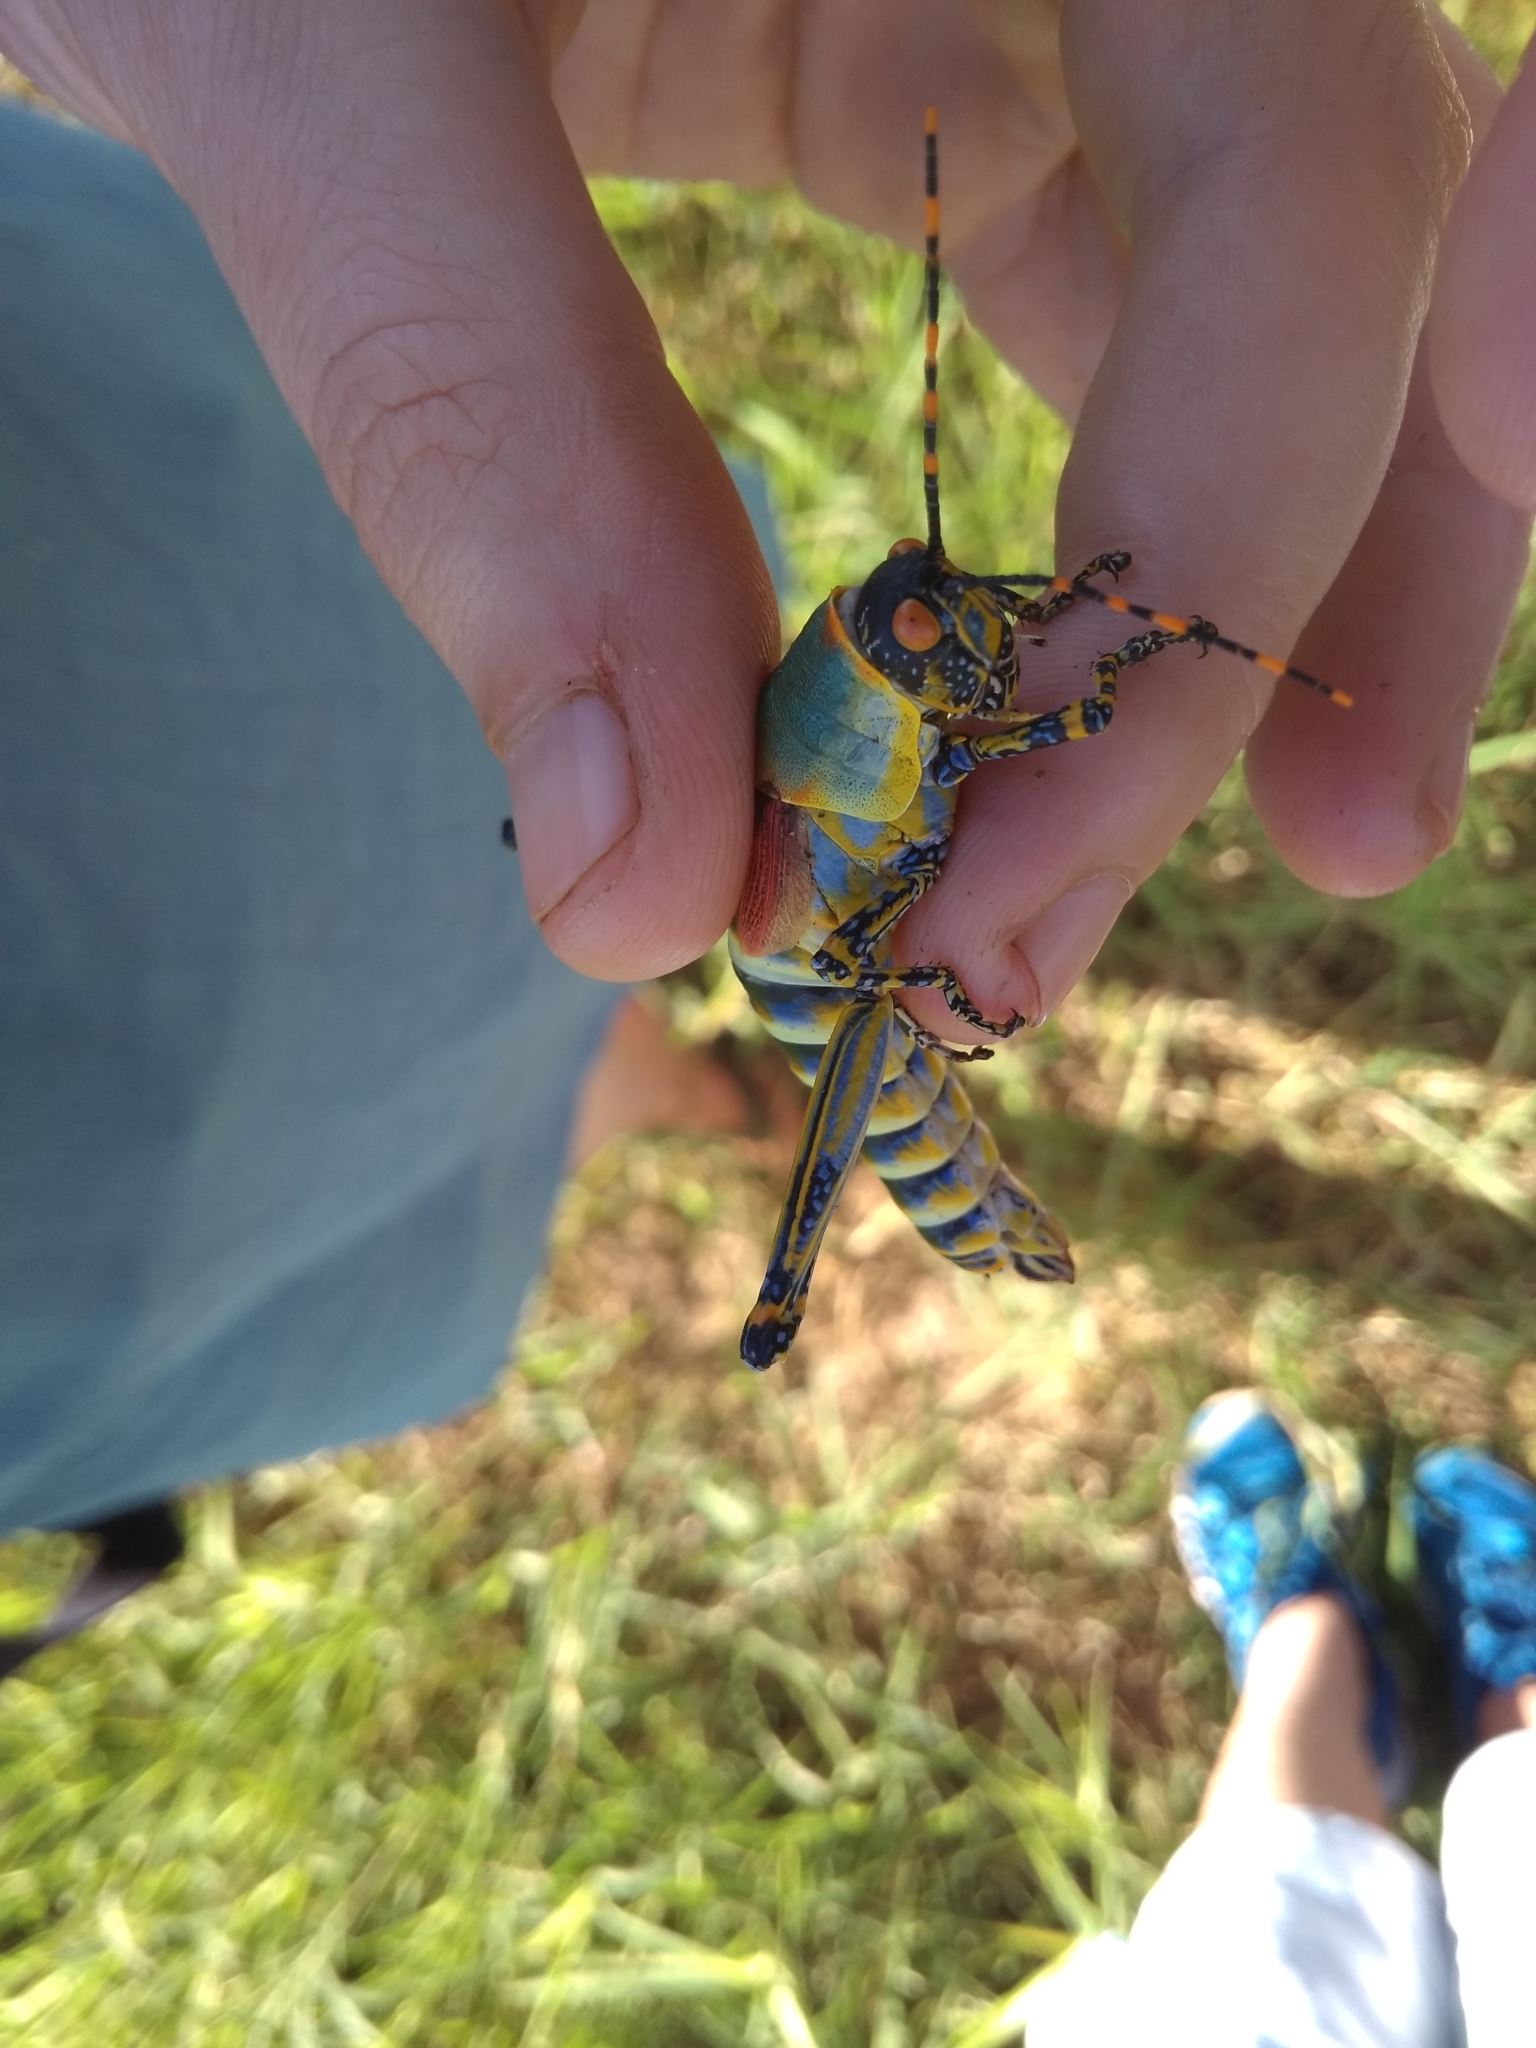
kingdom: Animalia
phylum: Arthropoda
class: Insecta
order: Orthoptera
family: Pyrgomorphidae
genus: Zonocerus
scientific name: Zonocerus elegans
